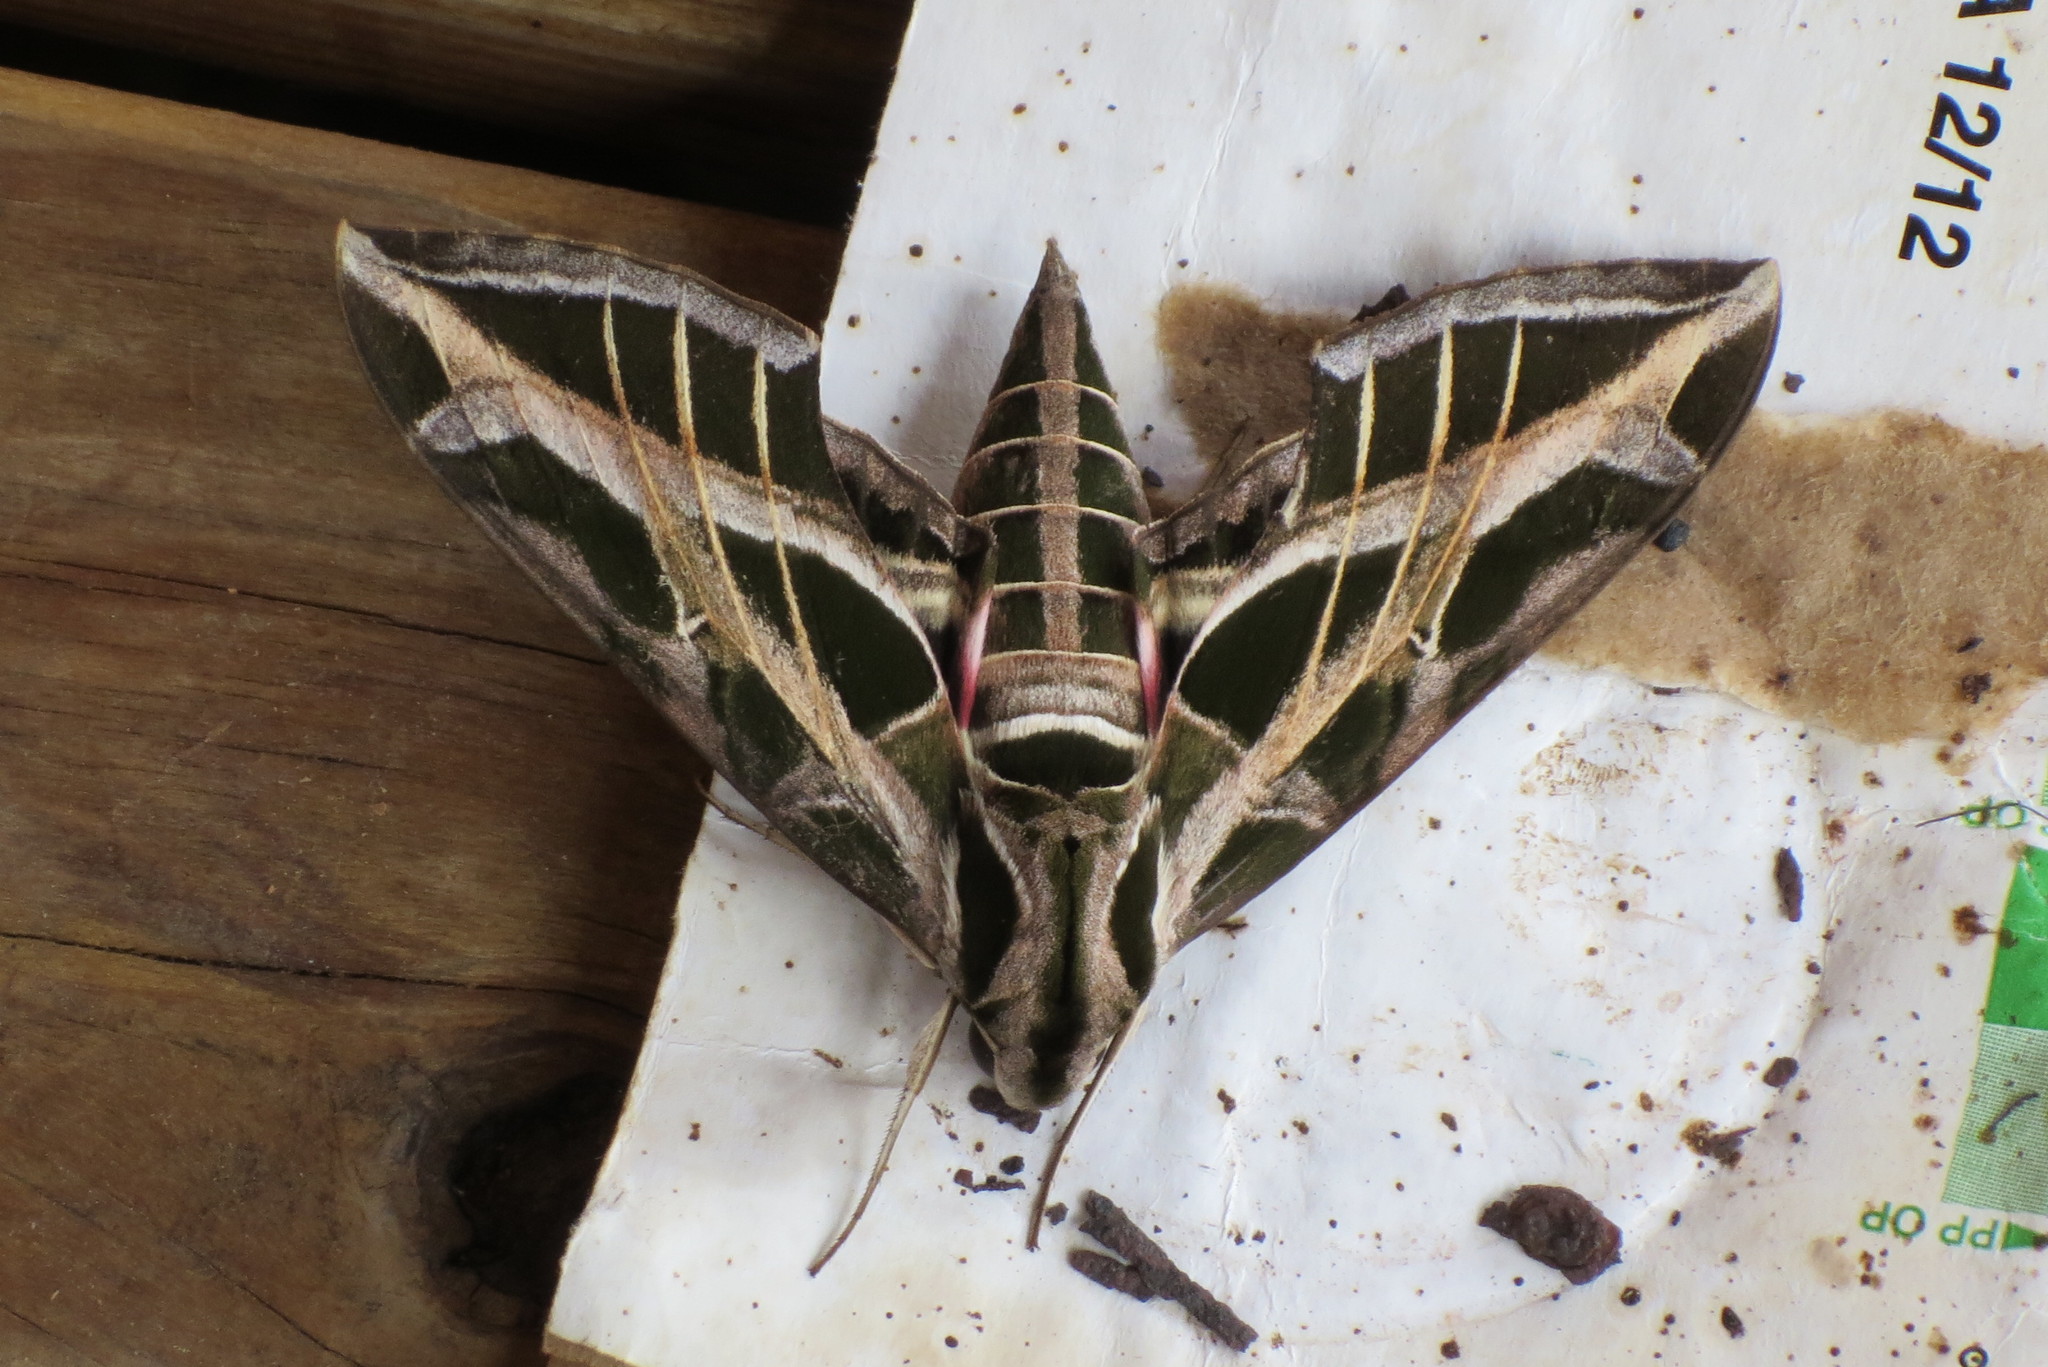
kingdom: Animalia
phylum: Arthropoda
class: Insecta
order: Lepidoptera
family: Sphingidae
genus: Eumorpha
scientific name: Eumorpha vitis
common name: Vine sphinx
